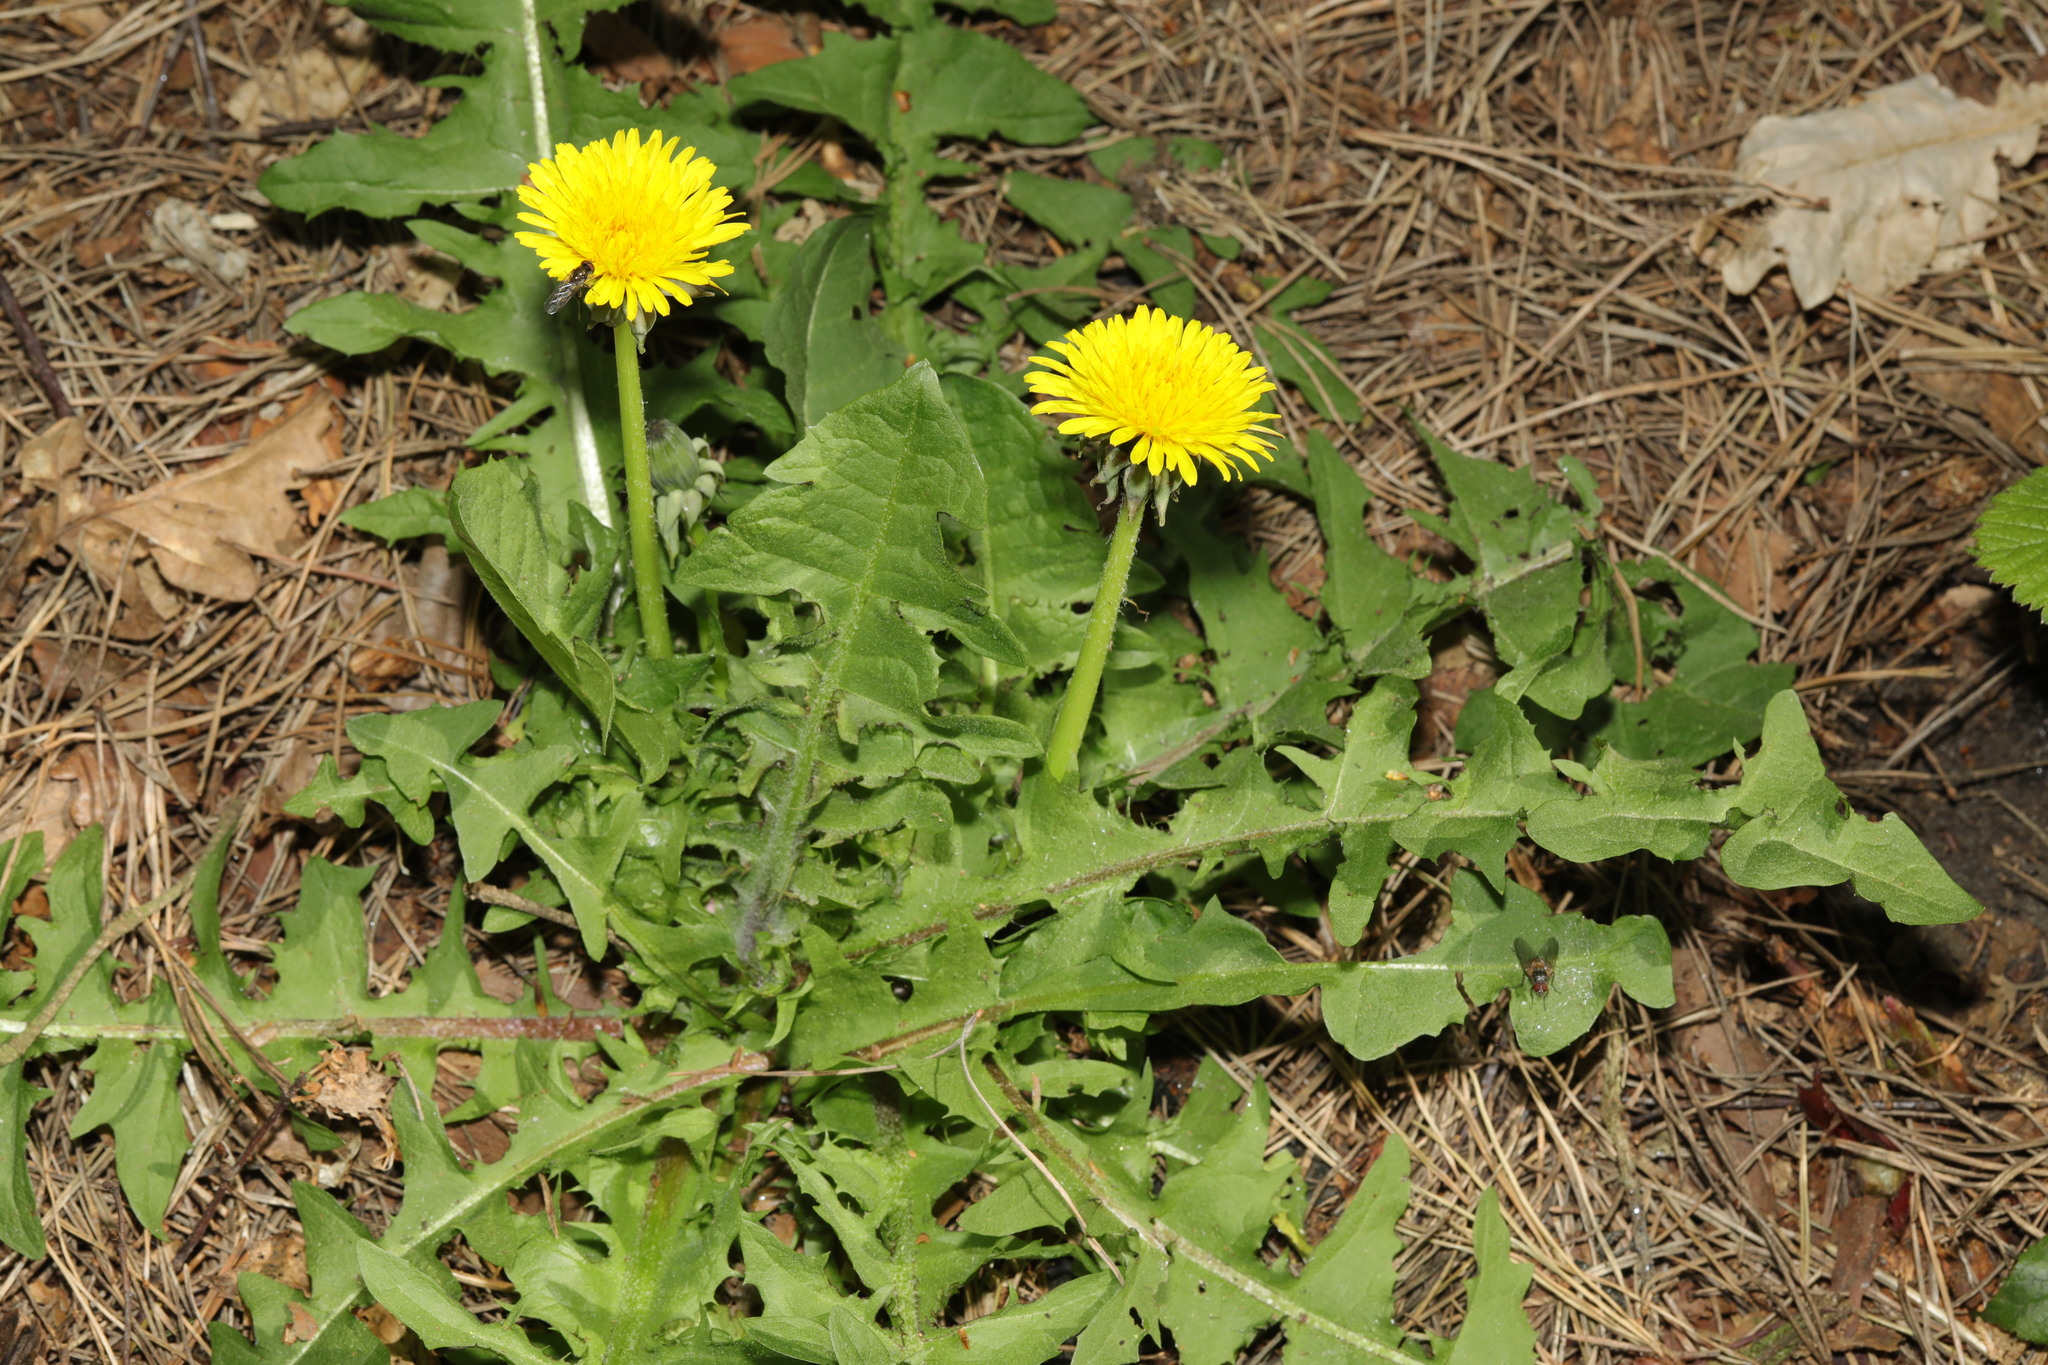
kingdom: Plantae
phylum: Tracheophyta
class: Magnoliopsida
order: Asterales
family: Asteraceae
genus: Taraxacum
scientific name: Taraxacum officinale
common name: Common dandelion
